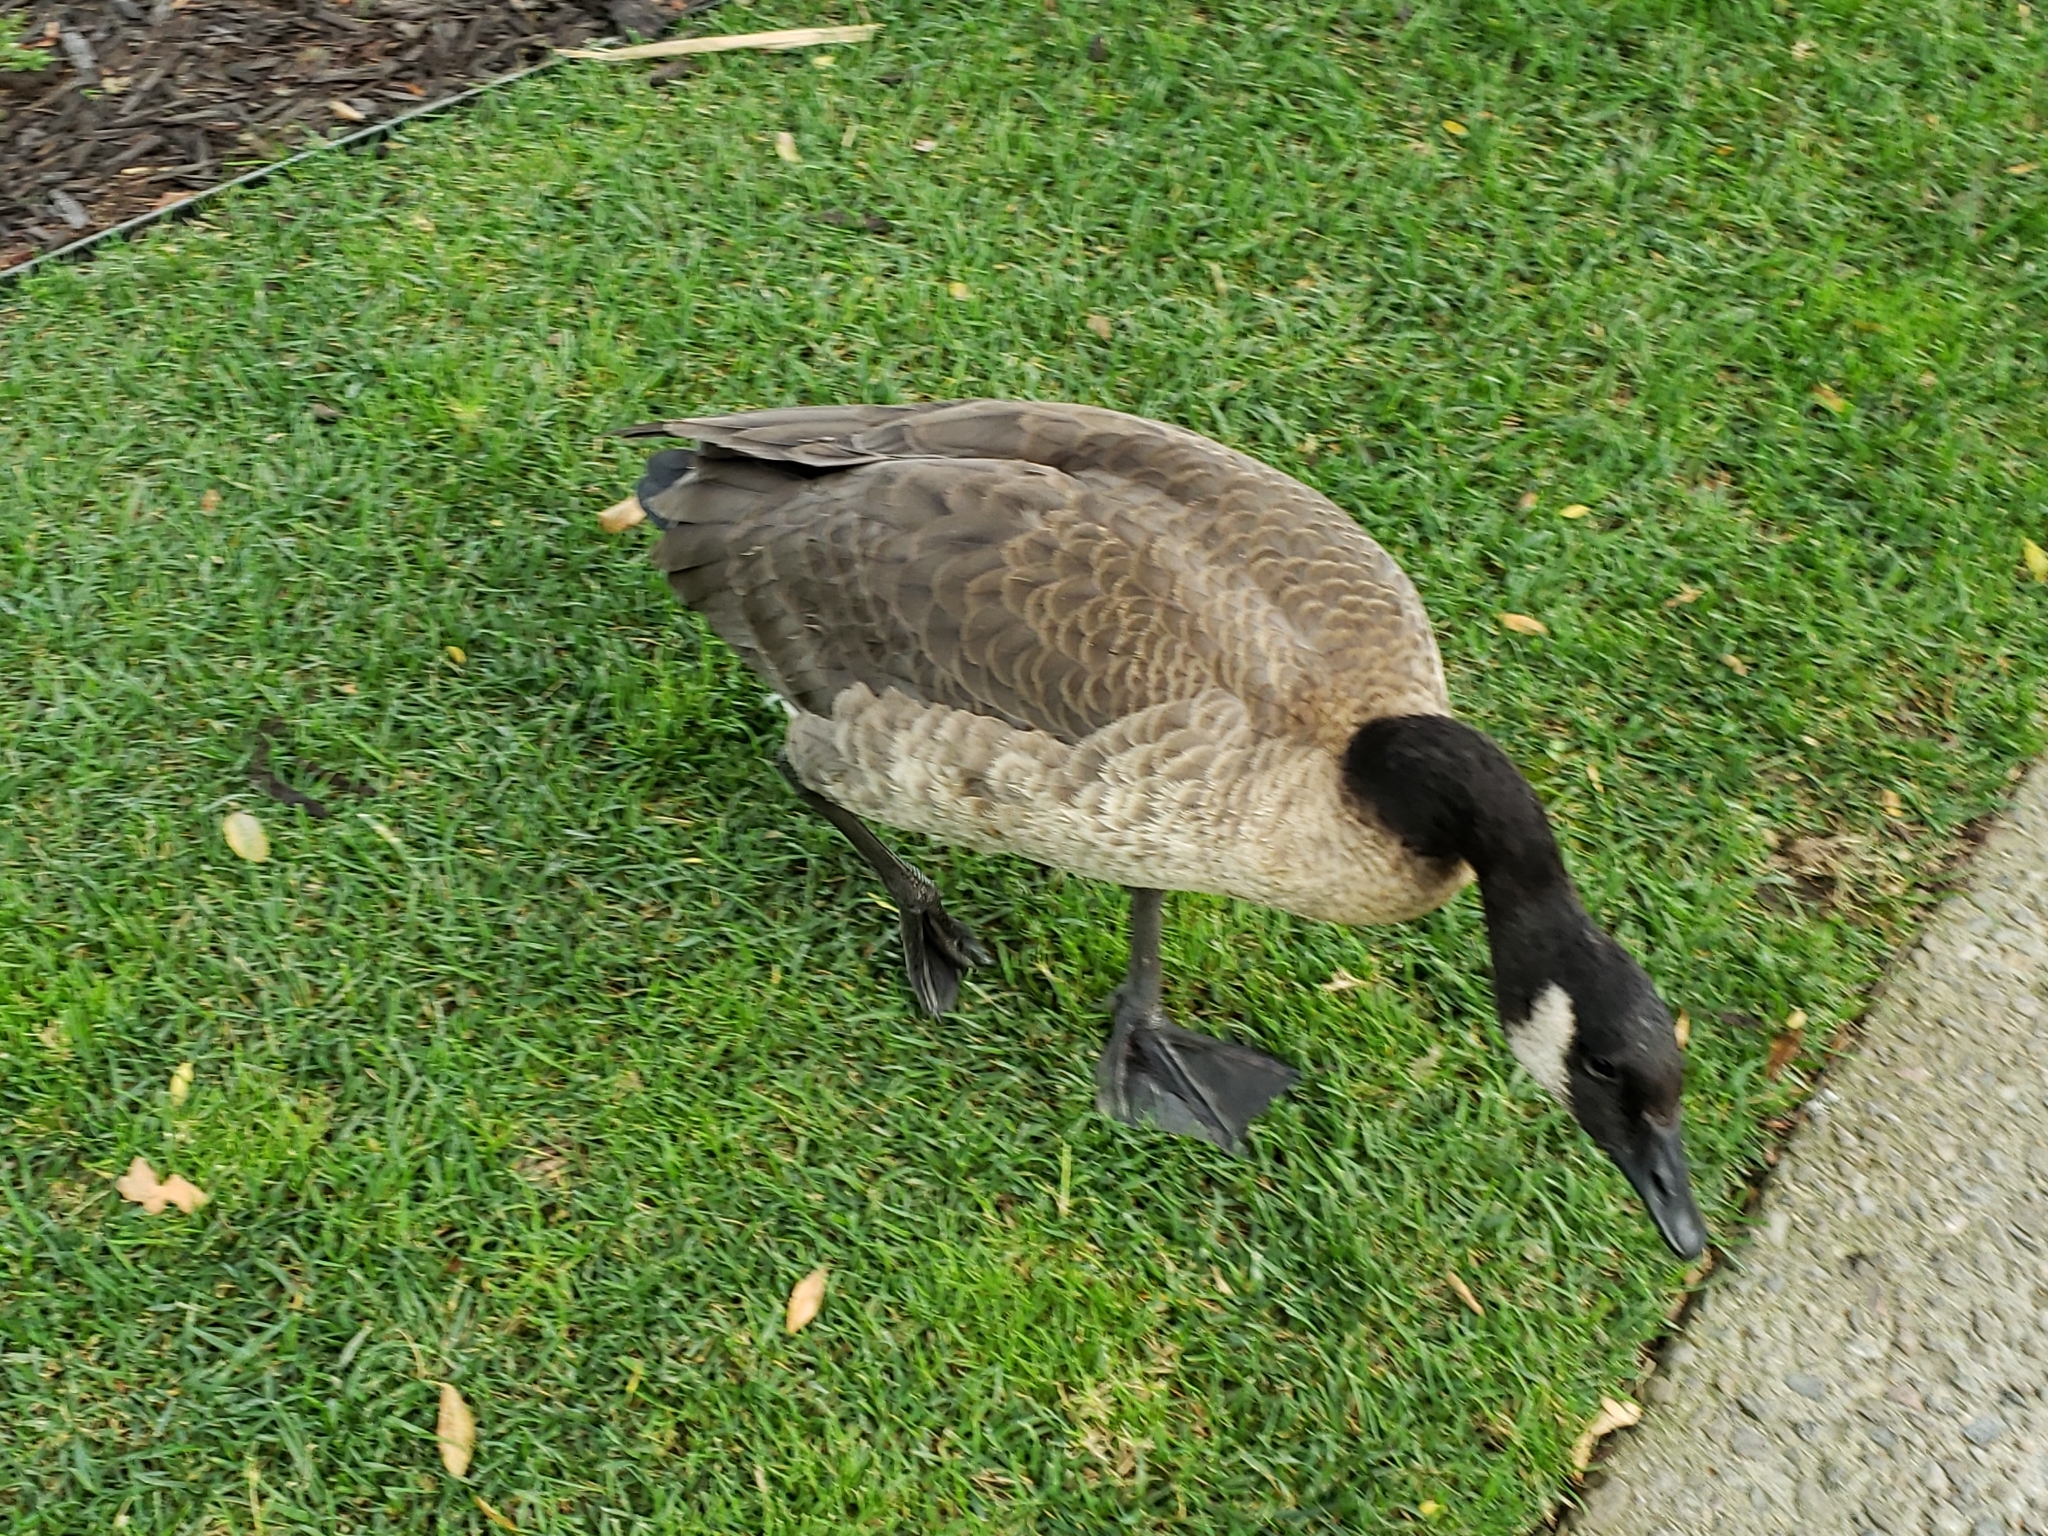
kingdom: Animalia
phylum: Chordata
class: Aves
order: Anseriformes
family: Anatidae
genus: Branta
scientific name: Branta canadensis
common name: Canada goose
